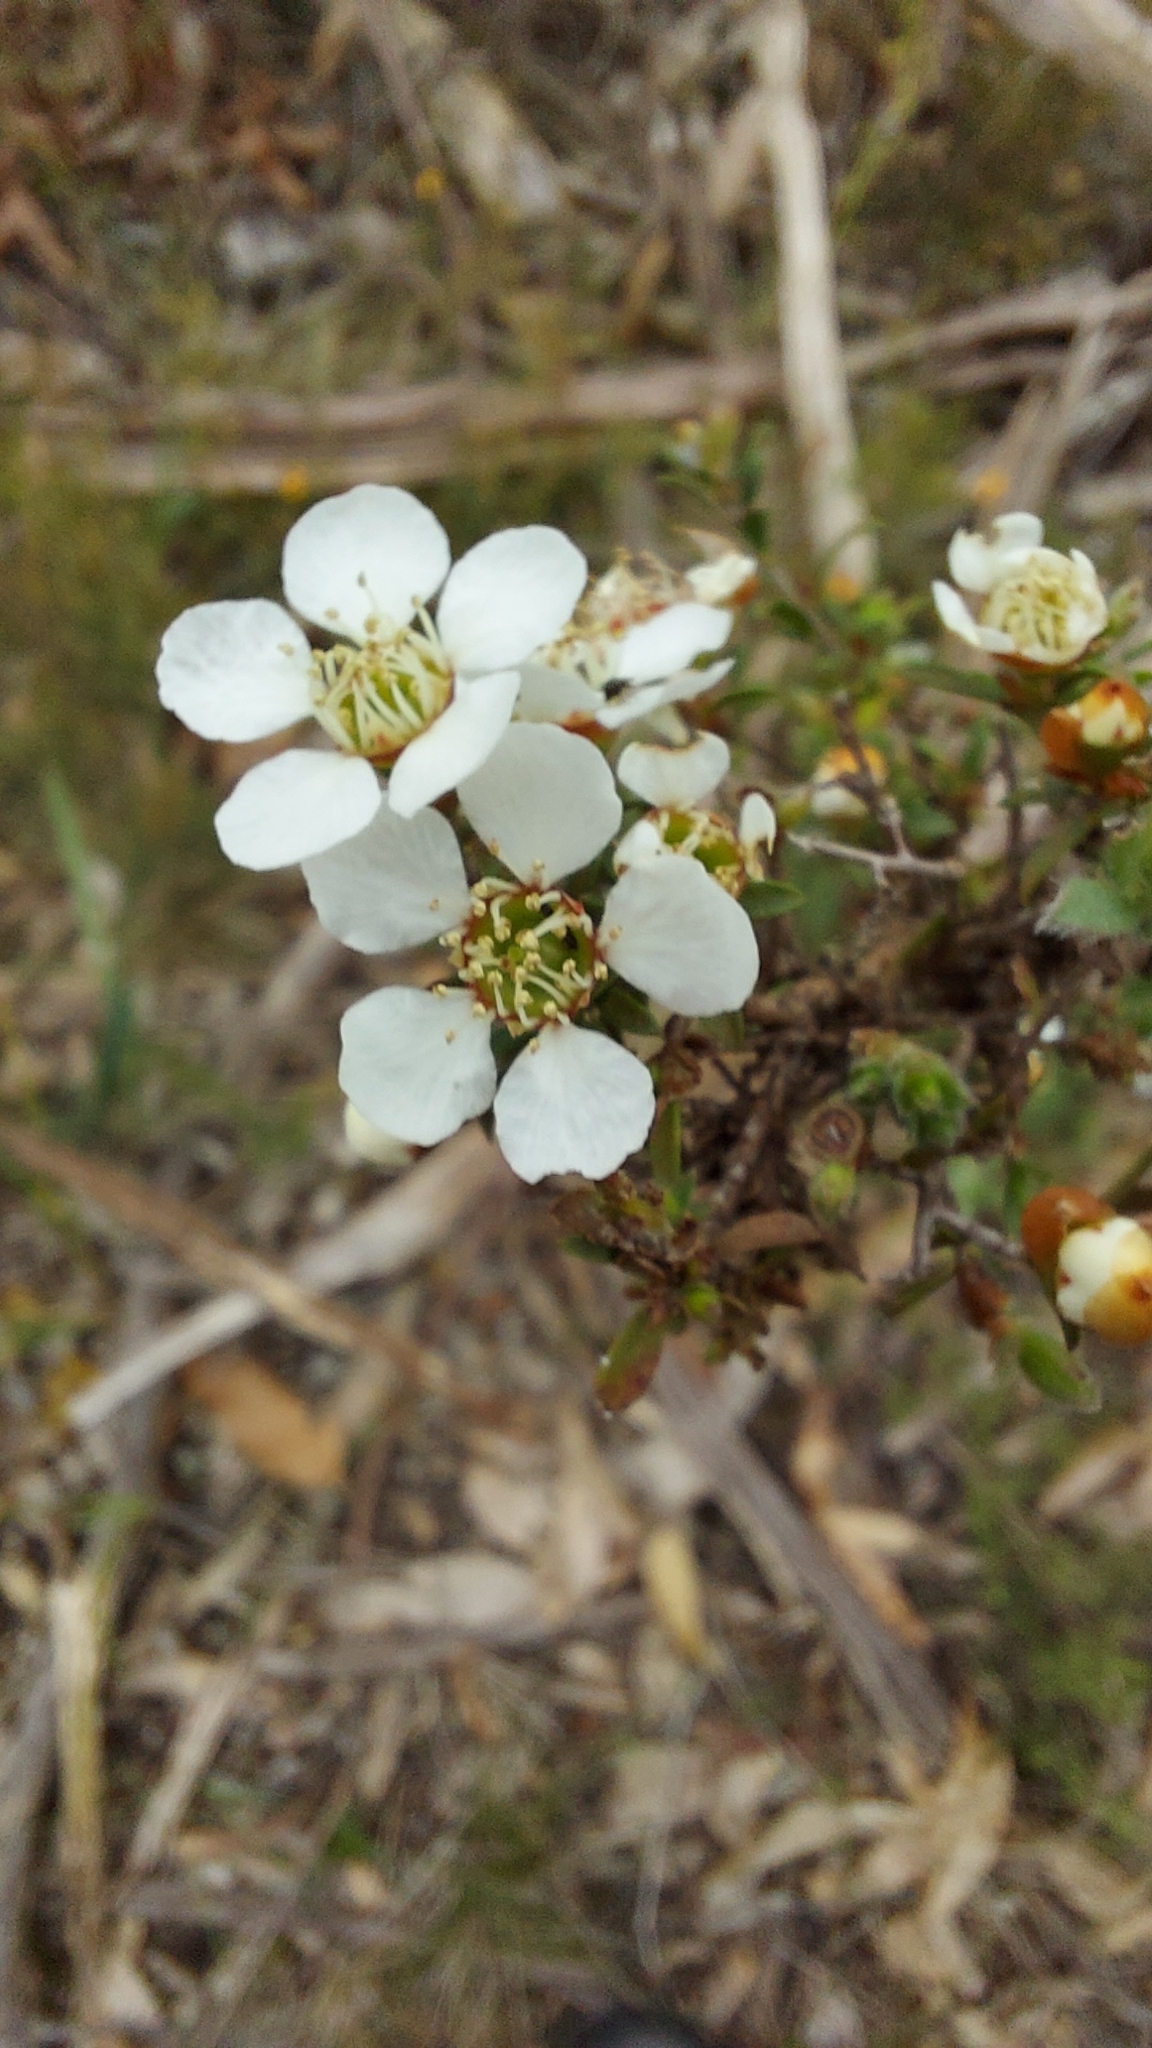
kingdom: Plantae
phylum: Tracheophyta
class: Magnoliopsida
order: Myrtales
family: Myrtaceae
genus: Leptospermum
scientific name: Leptospermum myrsinoides
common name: Heath teatree
